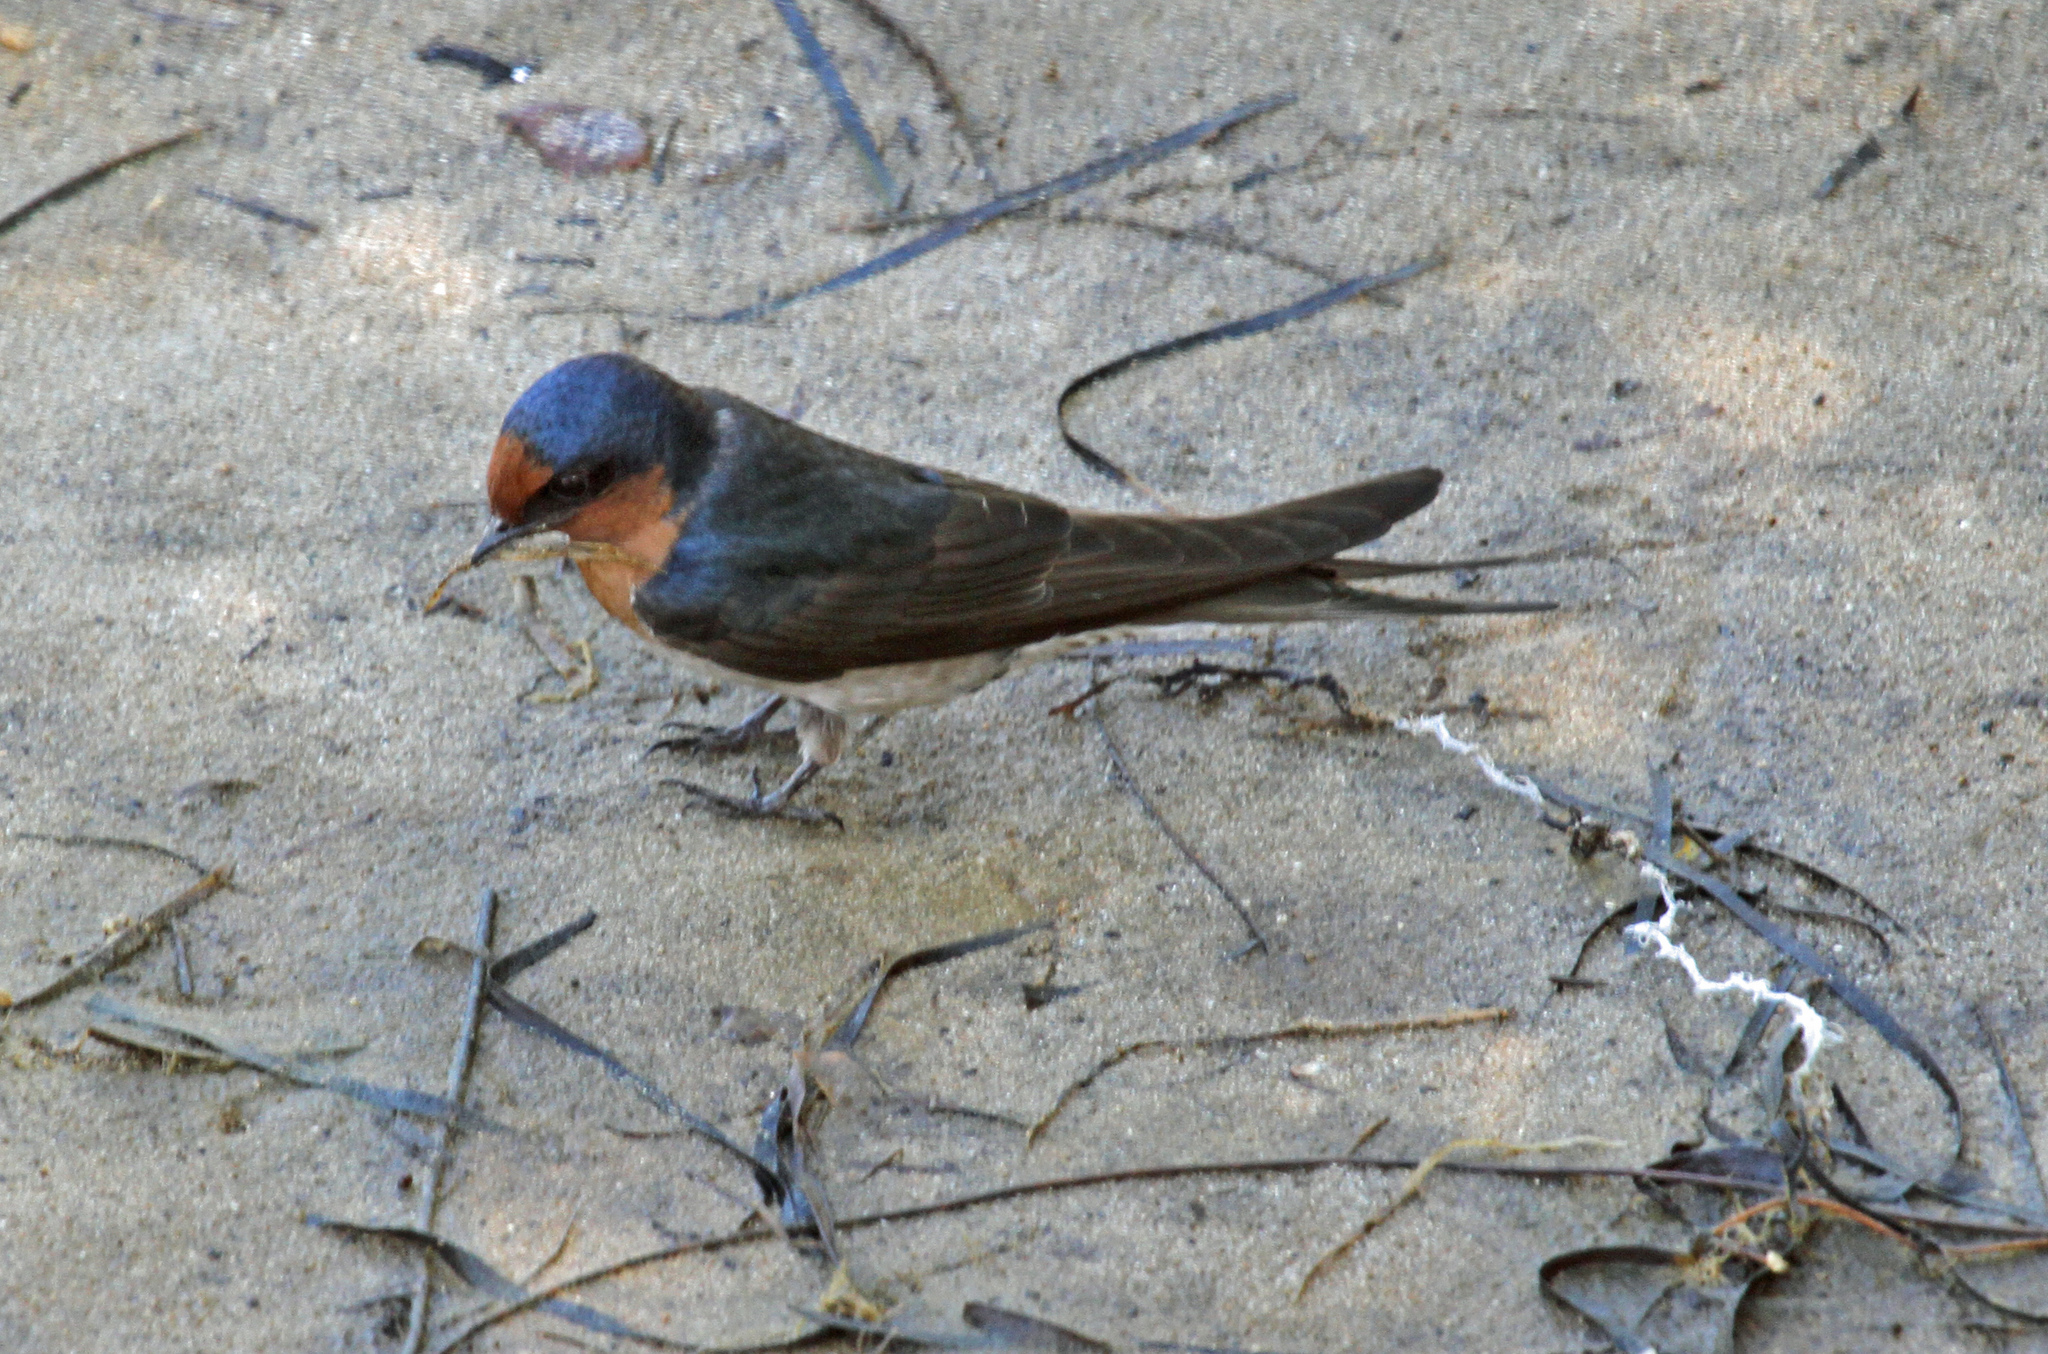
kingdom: Animalia
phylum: Chordata
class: Aves
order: Passeriformes
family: Hirundinidae
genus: Hirundo
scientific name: Hirundo neoxena
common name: Welcome swallow
